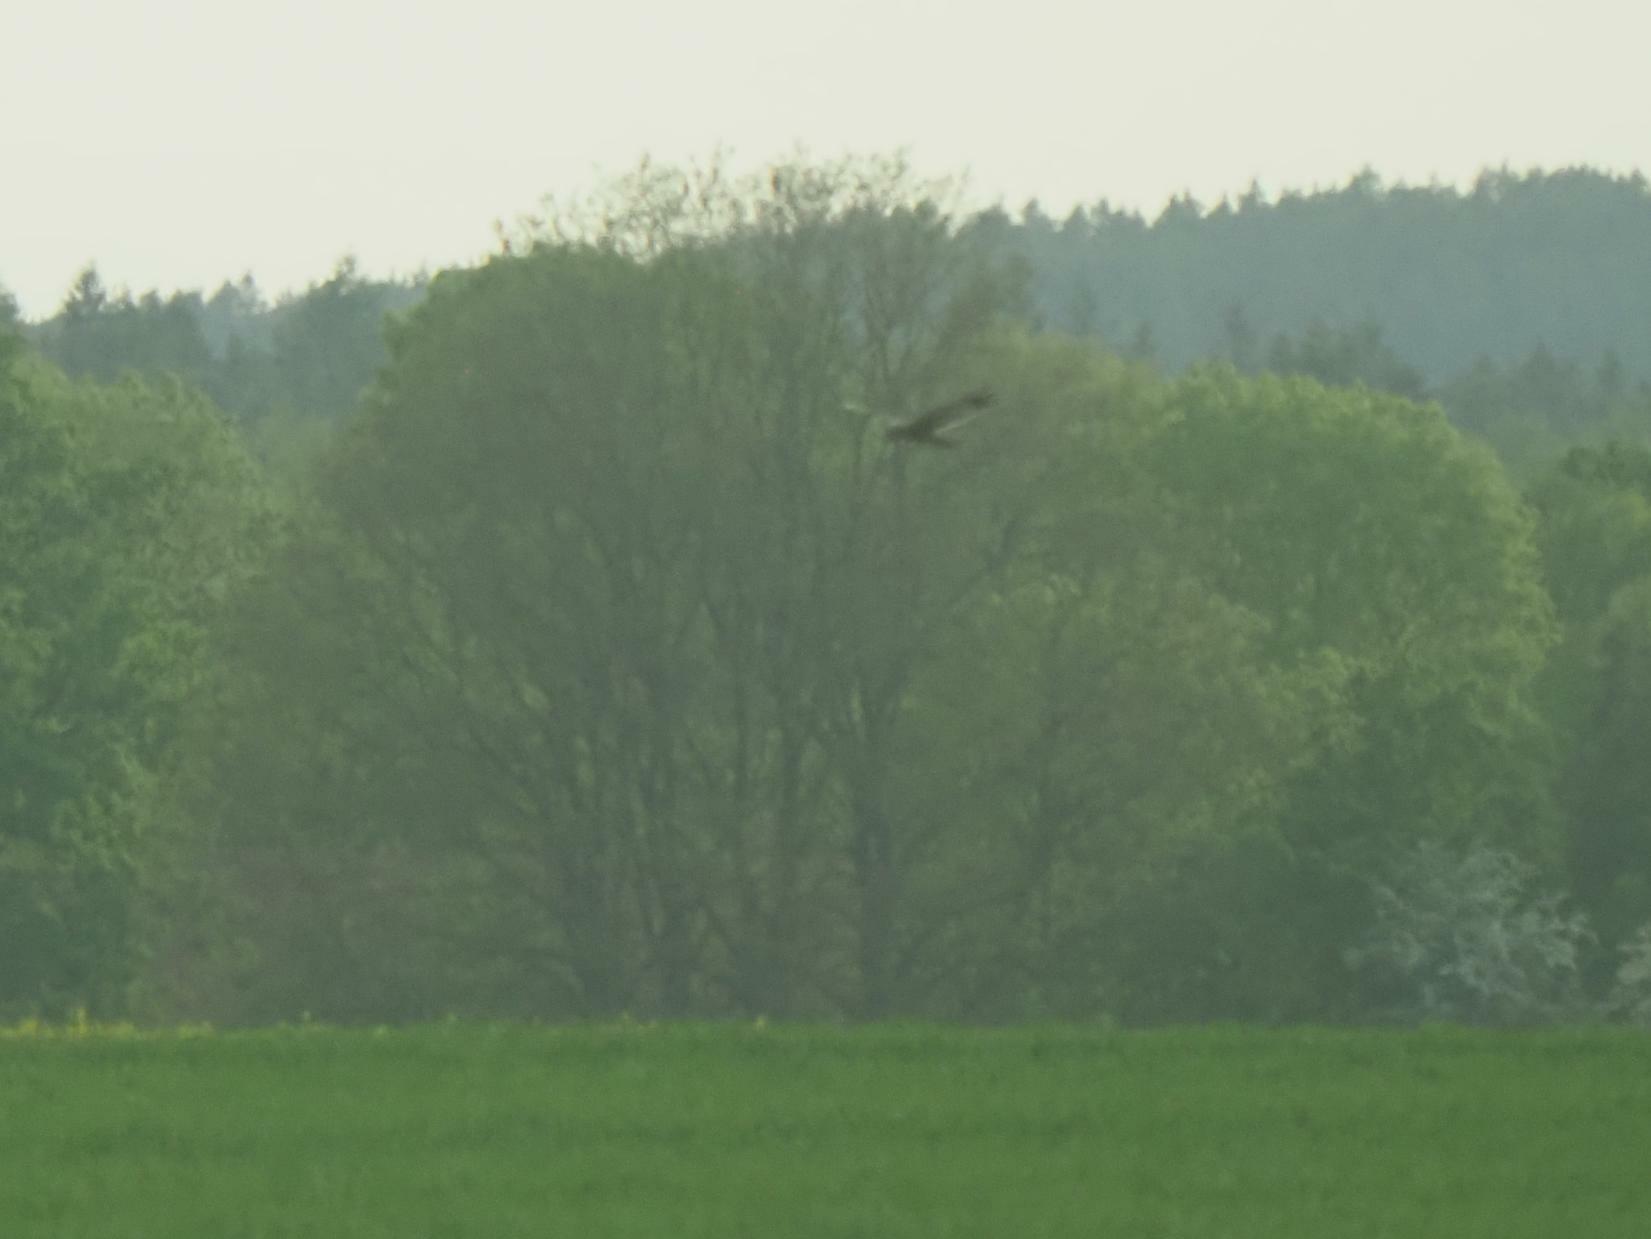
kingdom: Animalia
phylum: Chordata
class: Aves
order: Accipitriformes
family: Accipitridae
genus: Circus
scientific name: Circus aeruginosus
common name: Western marsh harrier
